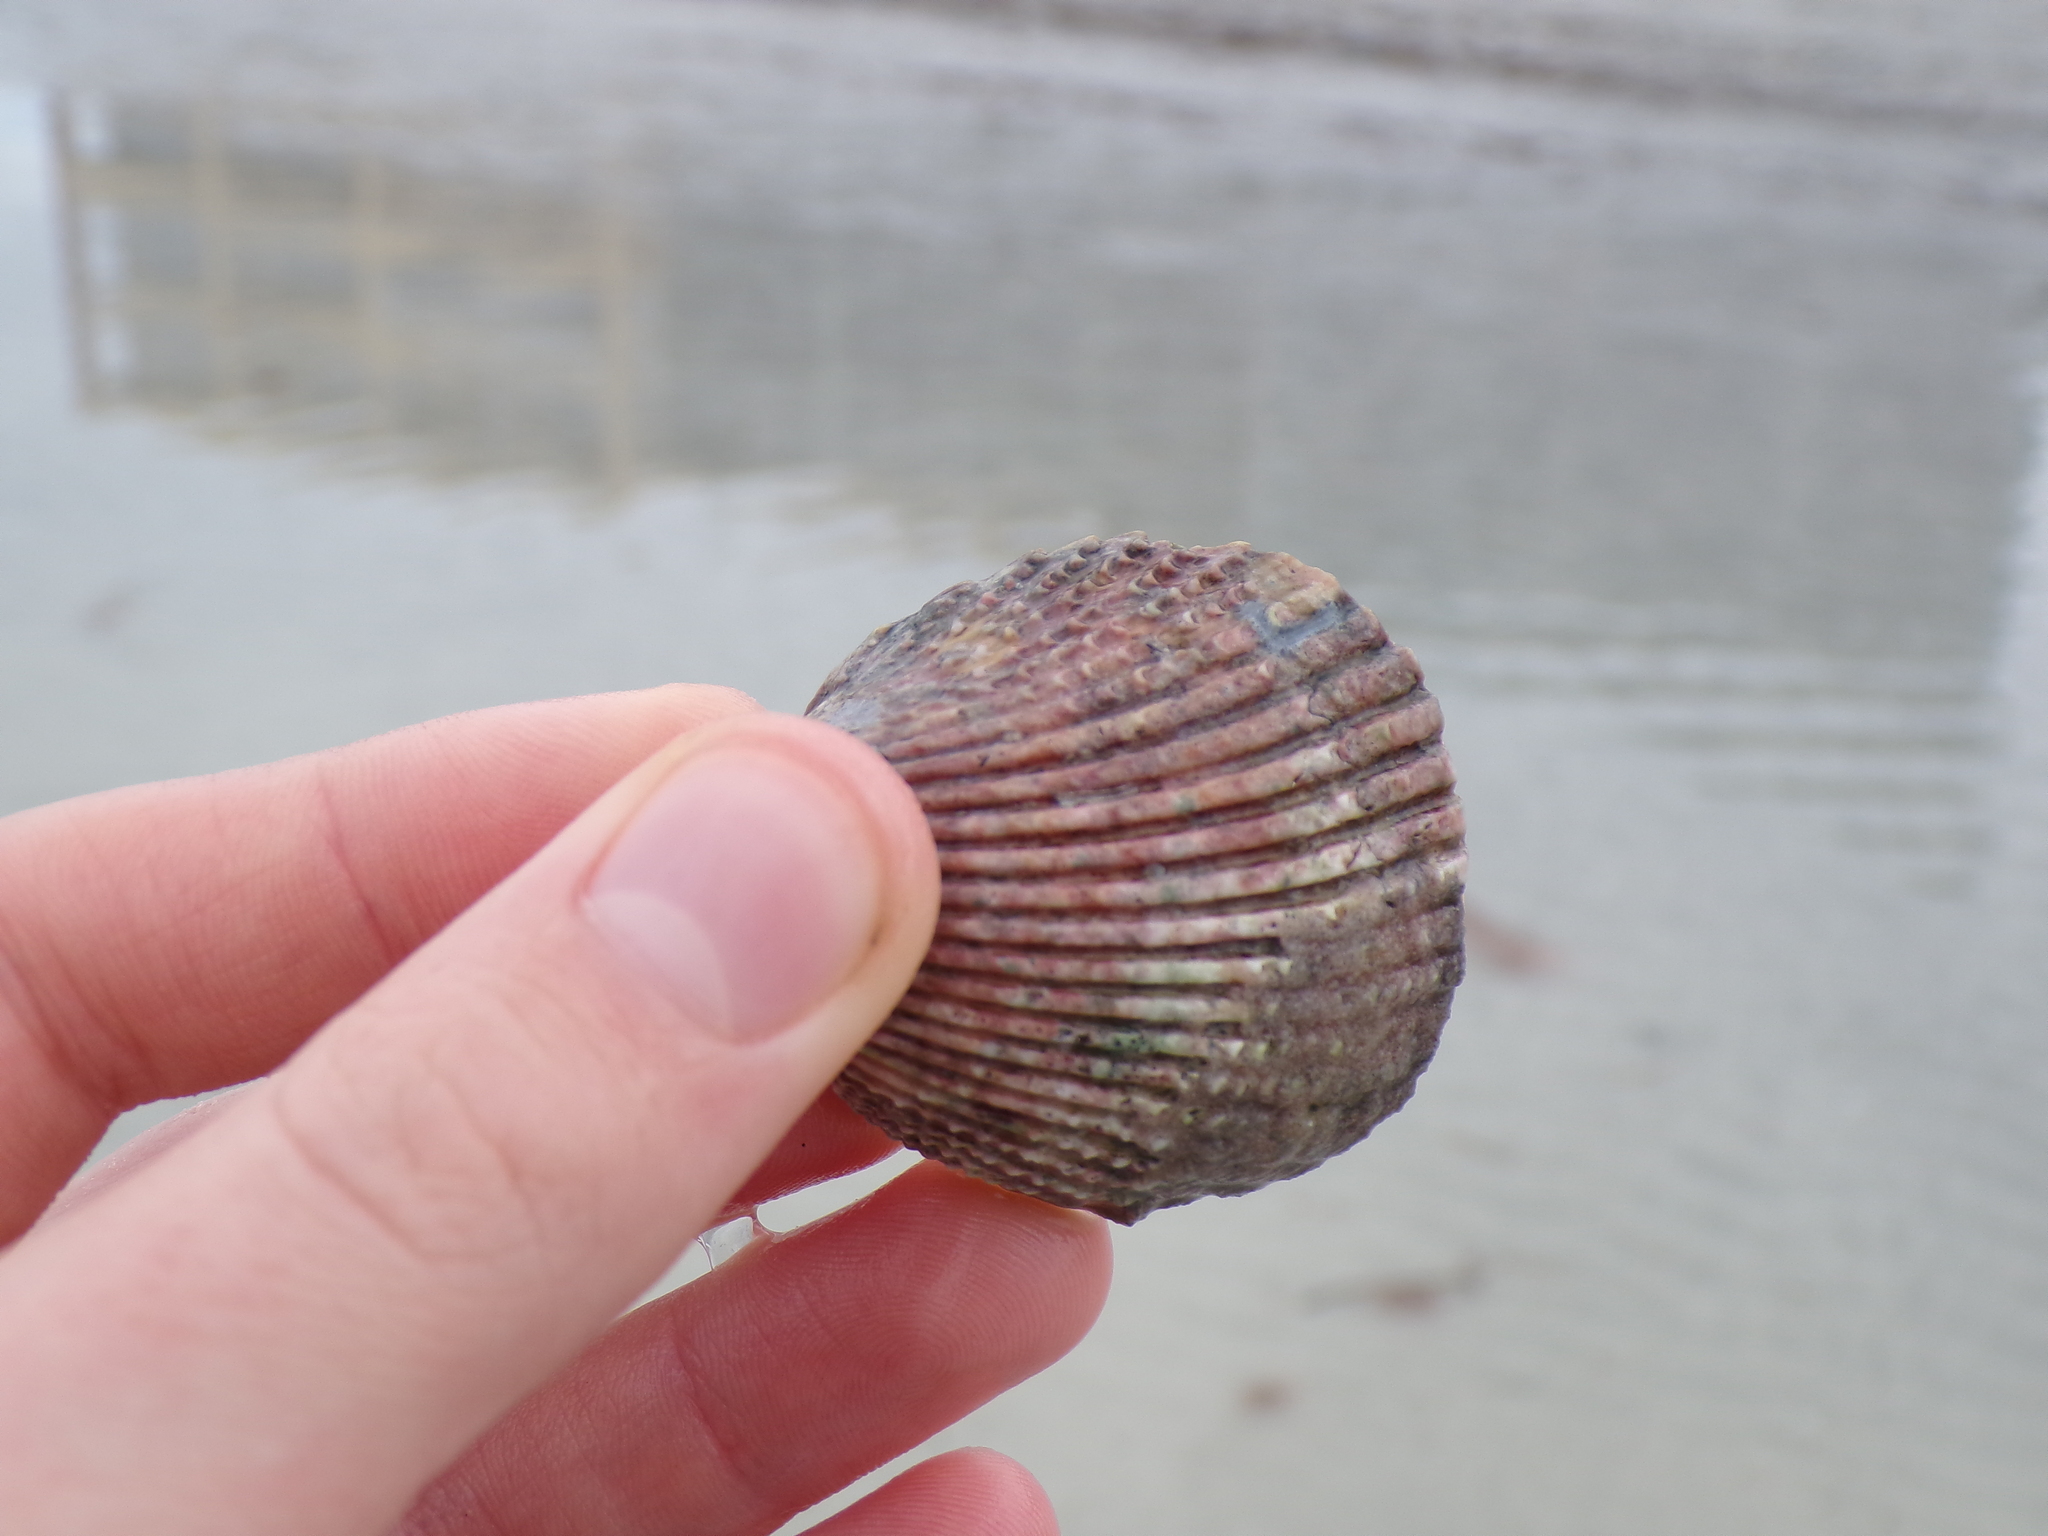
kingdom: Animalia
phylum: Mollusca
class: Bivalvia
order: Cardiida
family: Cardiidae
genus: Trachycardium
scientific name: Trachycardium egmontianum
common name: Florida pricklycockle
